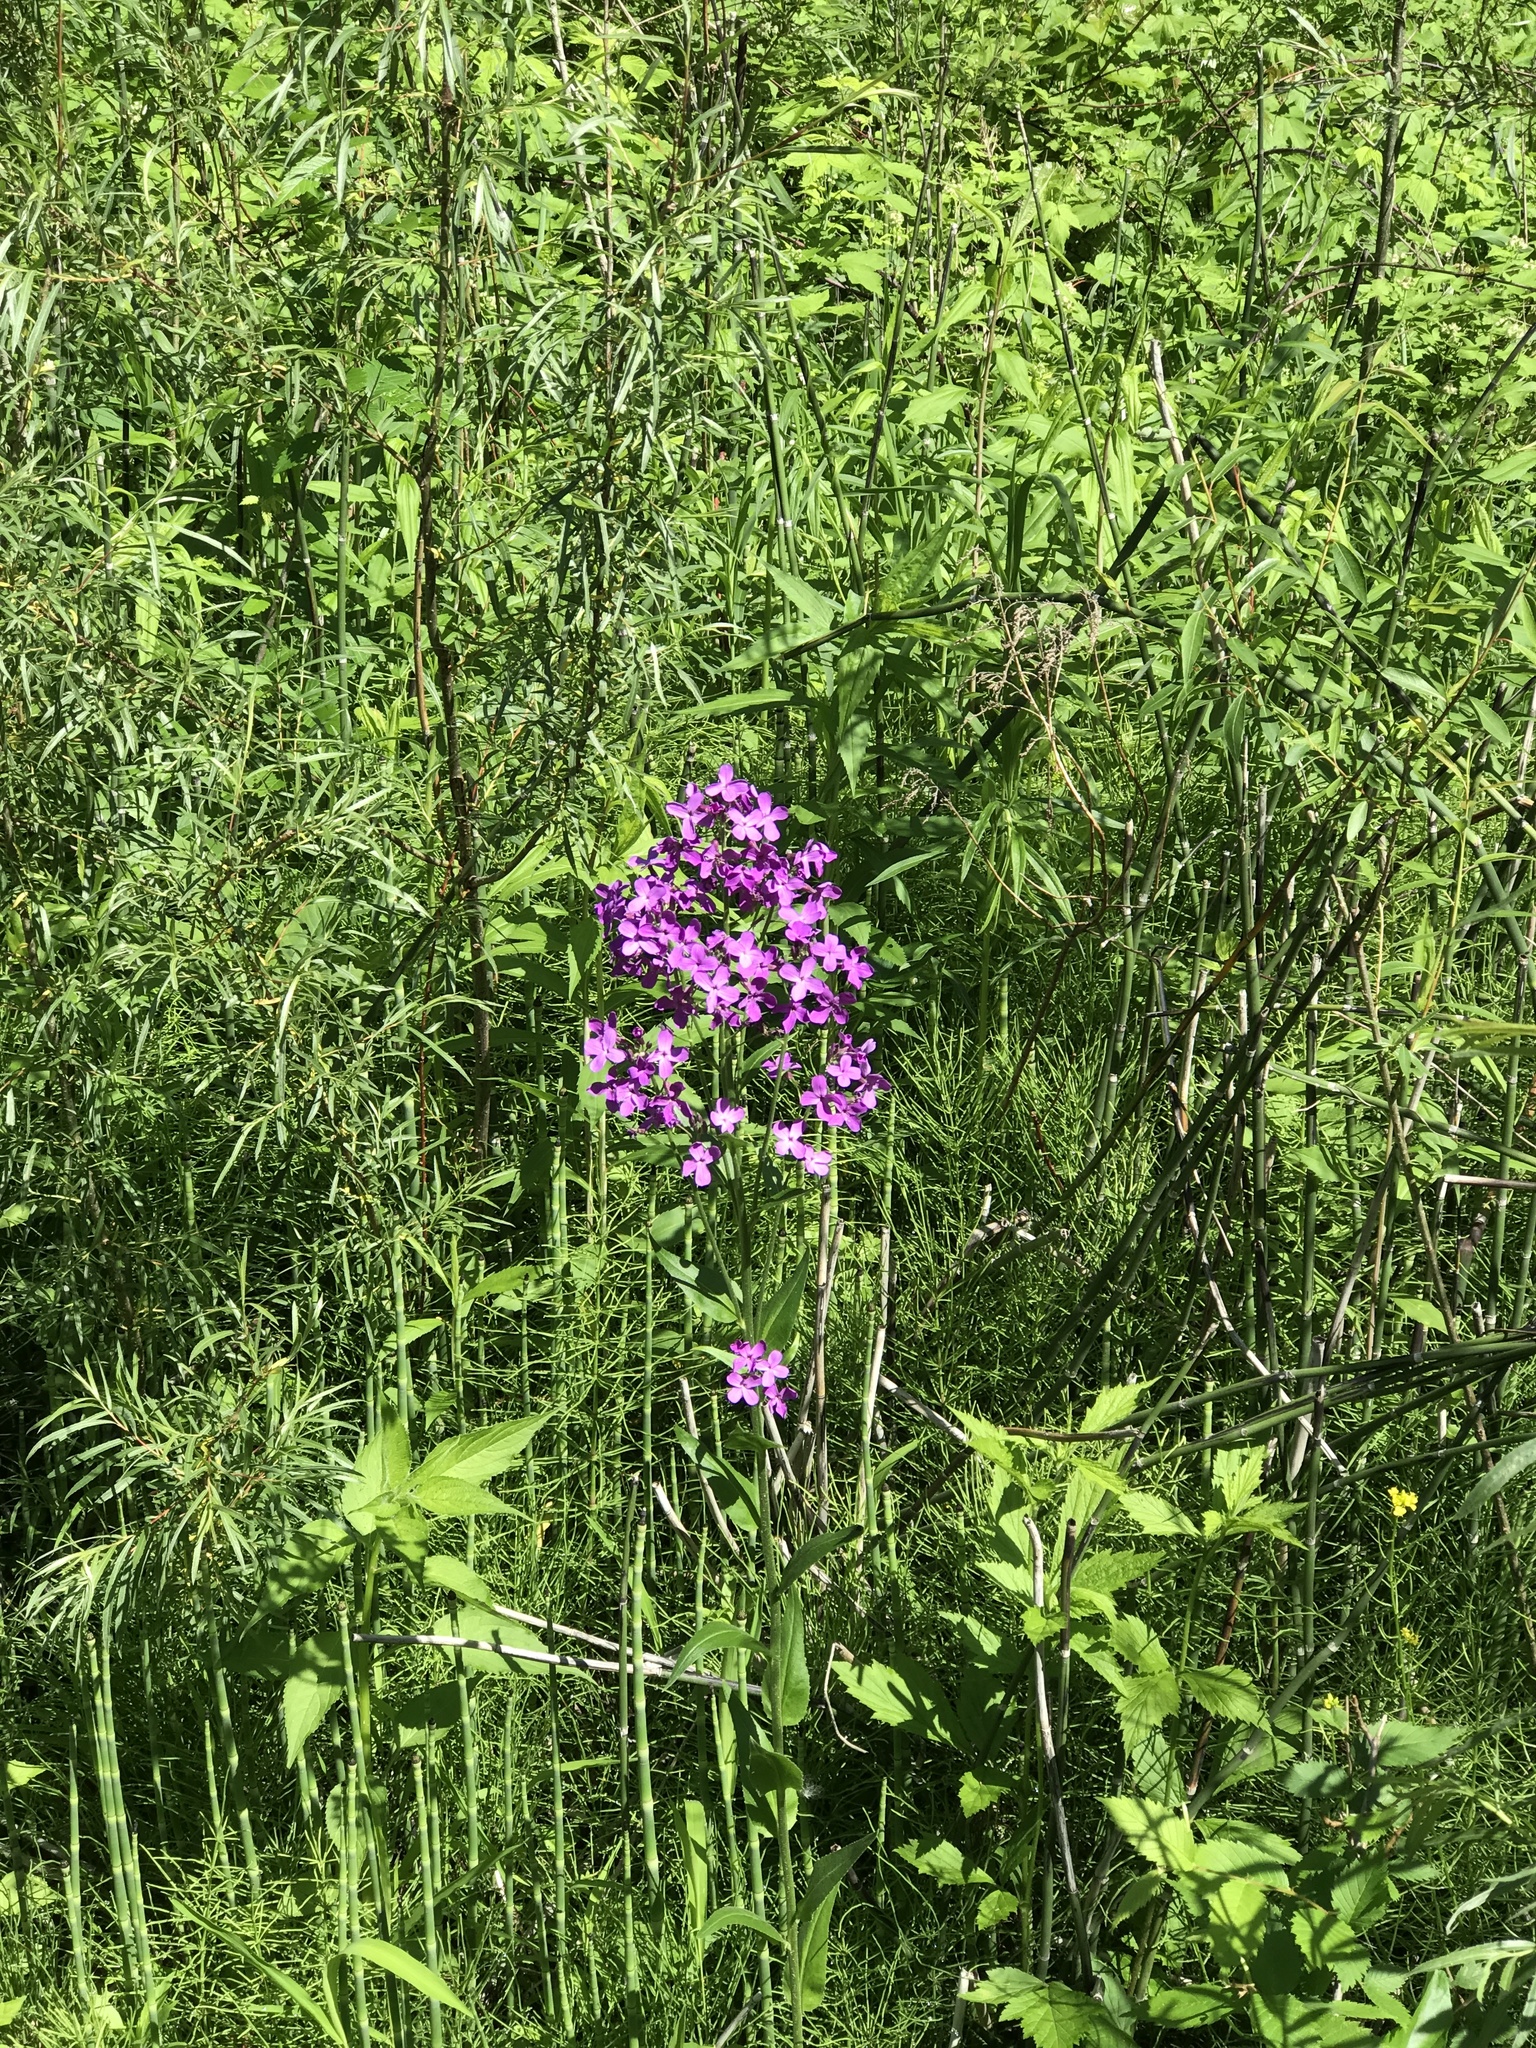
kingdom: Plantae
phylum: Tracheophyta
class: Magnoliopsida
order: Brassicales
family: Brassicaceae
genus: Hesperis
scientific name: Hesperis matronalis
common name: Dame's-violet
